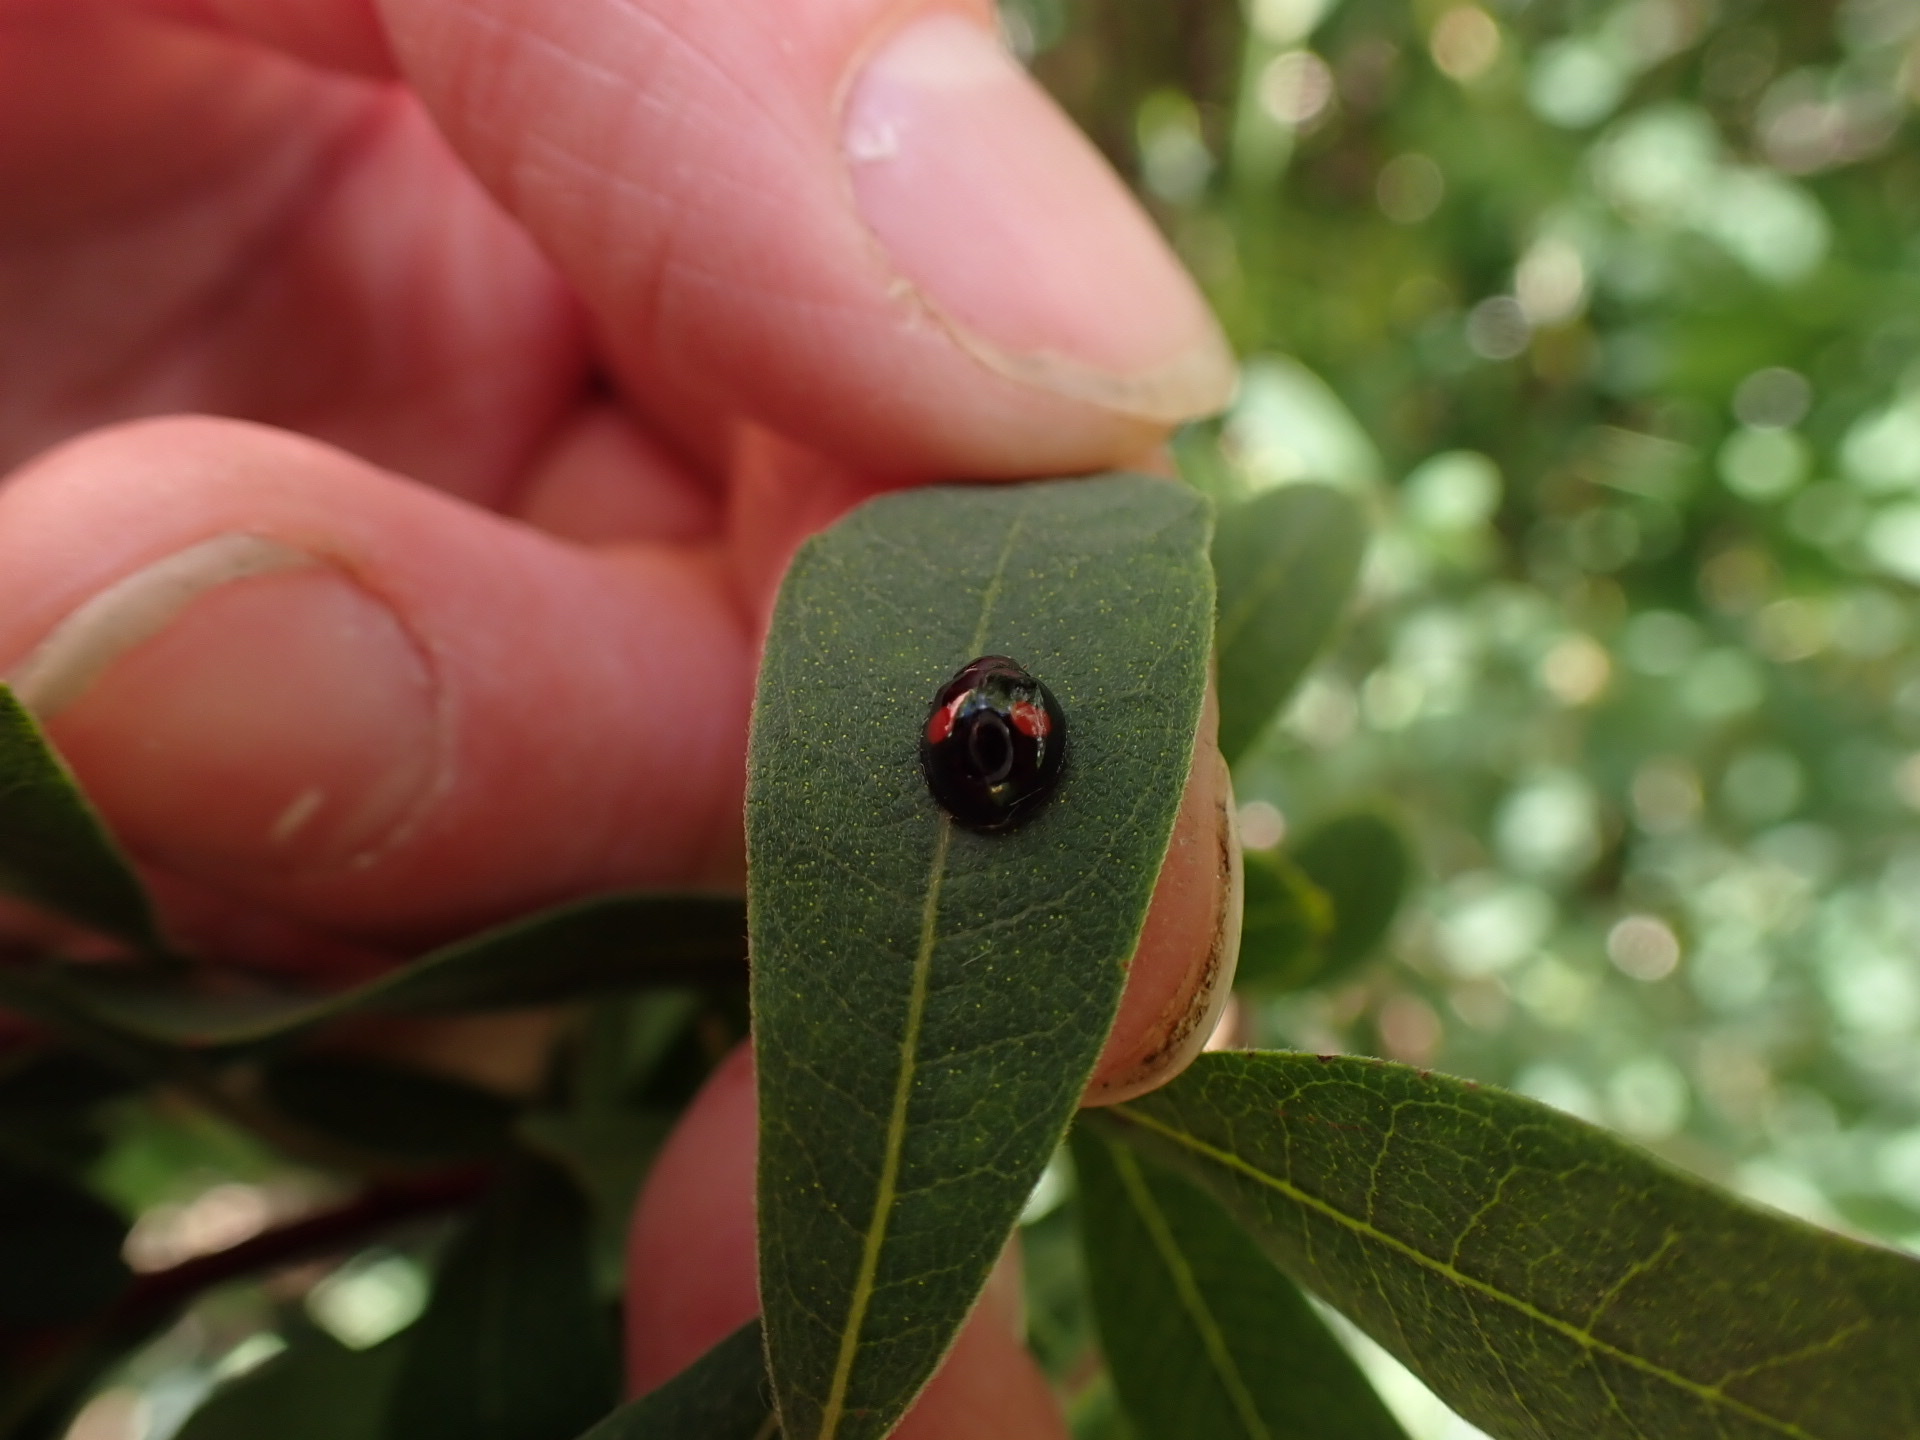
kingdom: Animalia
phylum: Arthropoda
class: Insecta
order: Coleoptera
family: Coccinellidae
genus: Chilocorus
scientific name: Chilocorus renipustulatus
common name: Kidney-spot ladybird
